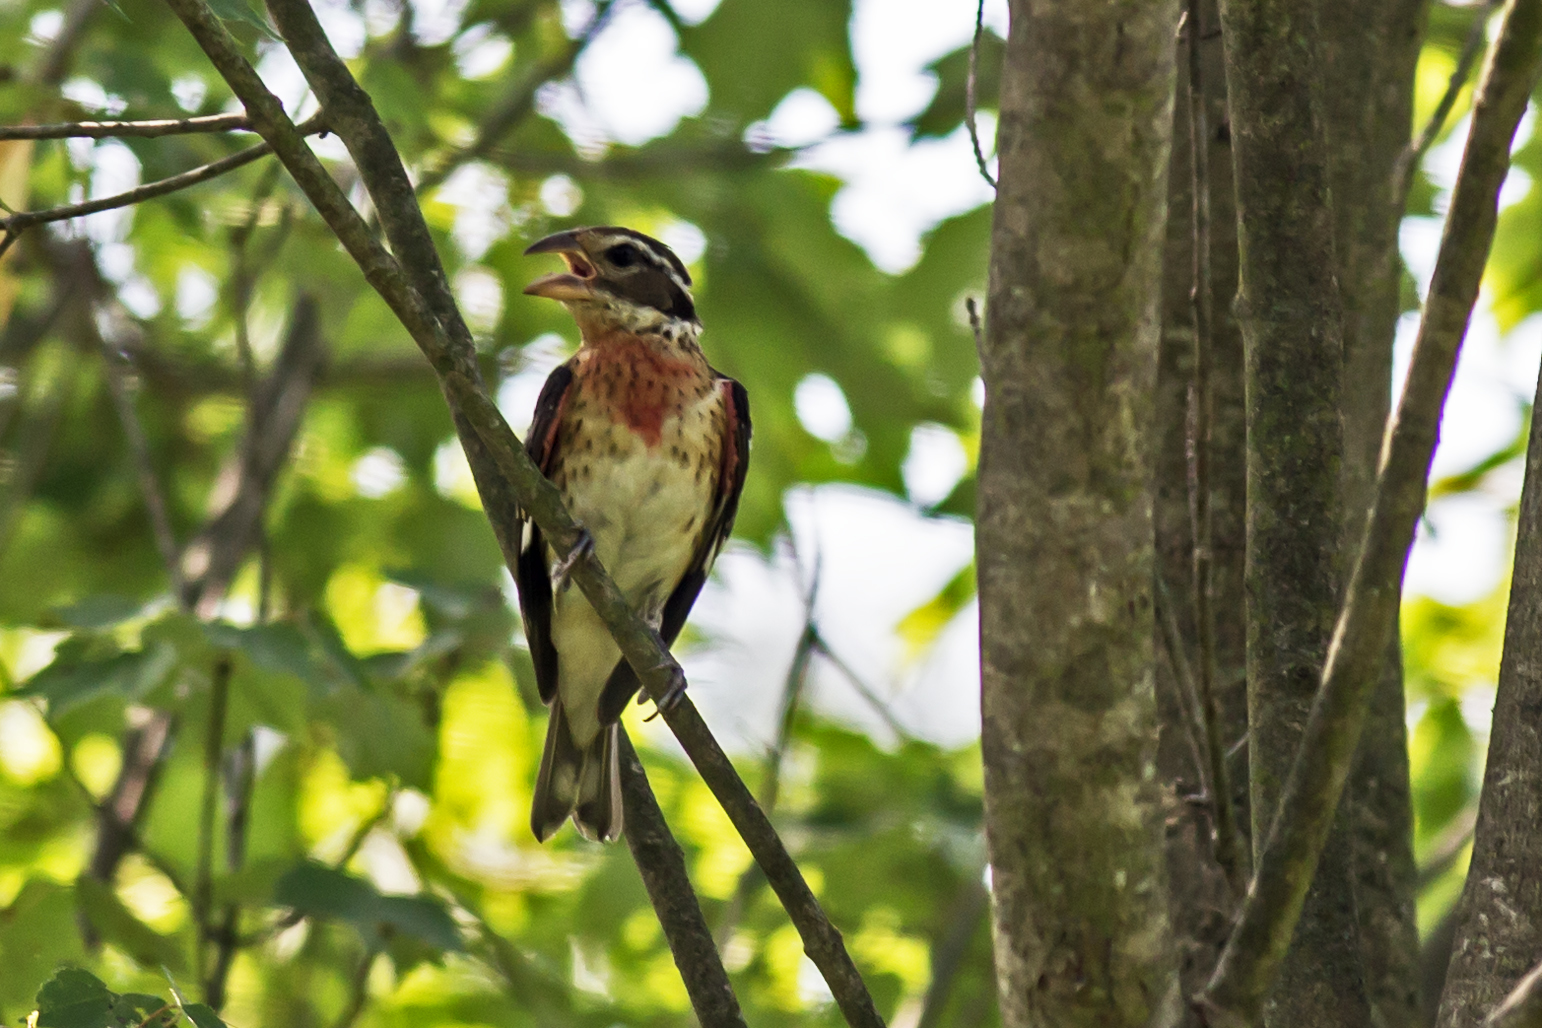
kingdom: Animalia
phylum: Chordata
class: Aves
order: Passeriformes
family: Cardinalidae
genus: Pheucticus
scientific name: Pheucticus ludovicianus
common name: Rose-breasted grosbeak
